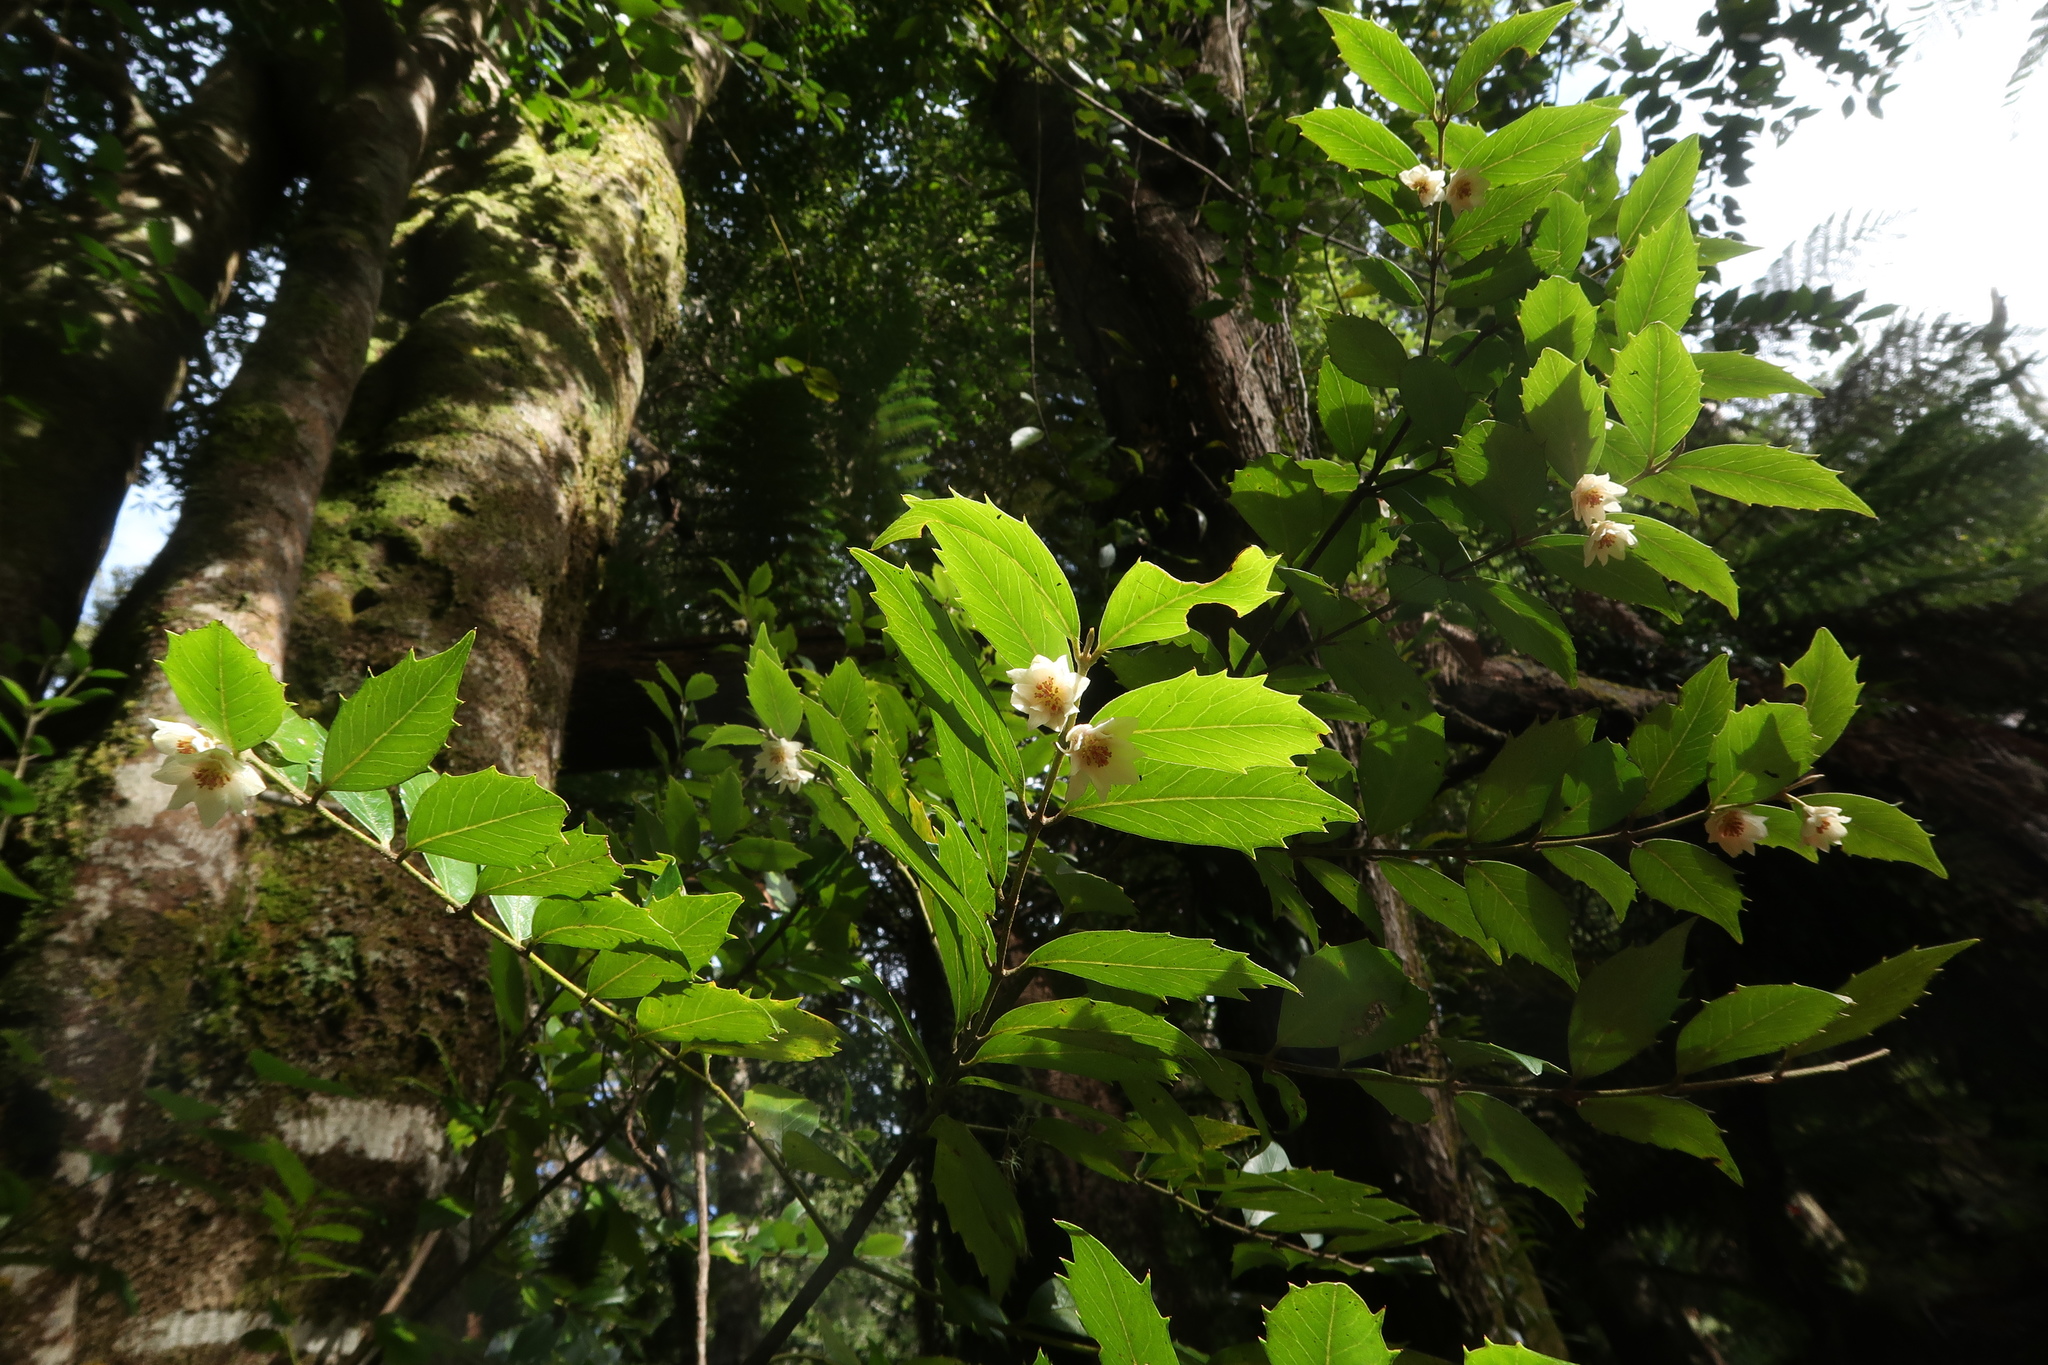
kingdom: Plantae
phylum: Tracheophyta
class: Magnoliopsida
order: Laurales
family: Atherospermataceae
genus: Atherosperma
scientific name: Atherosperma moschatum
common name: Tasmanian-sassafras
